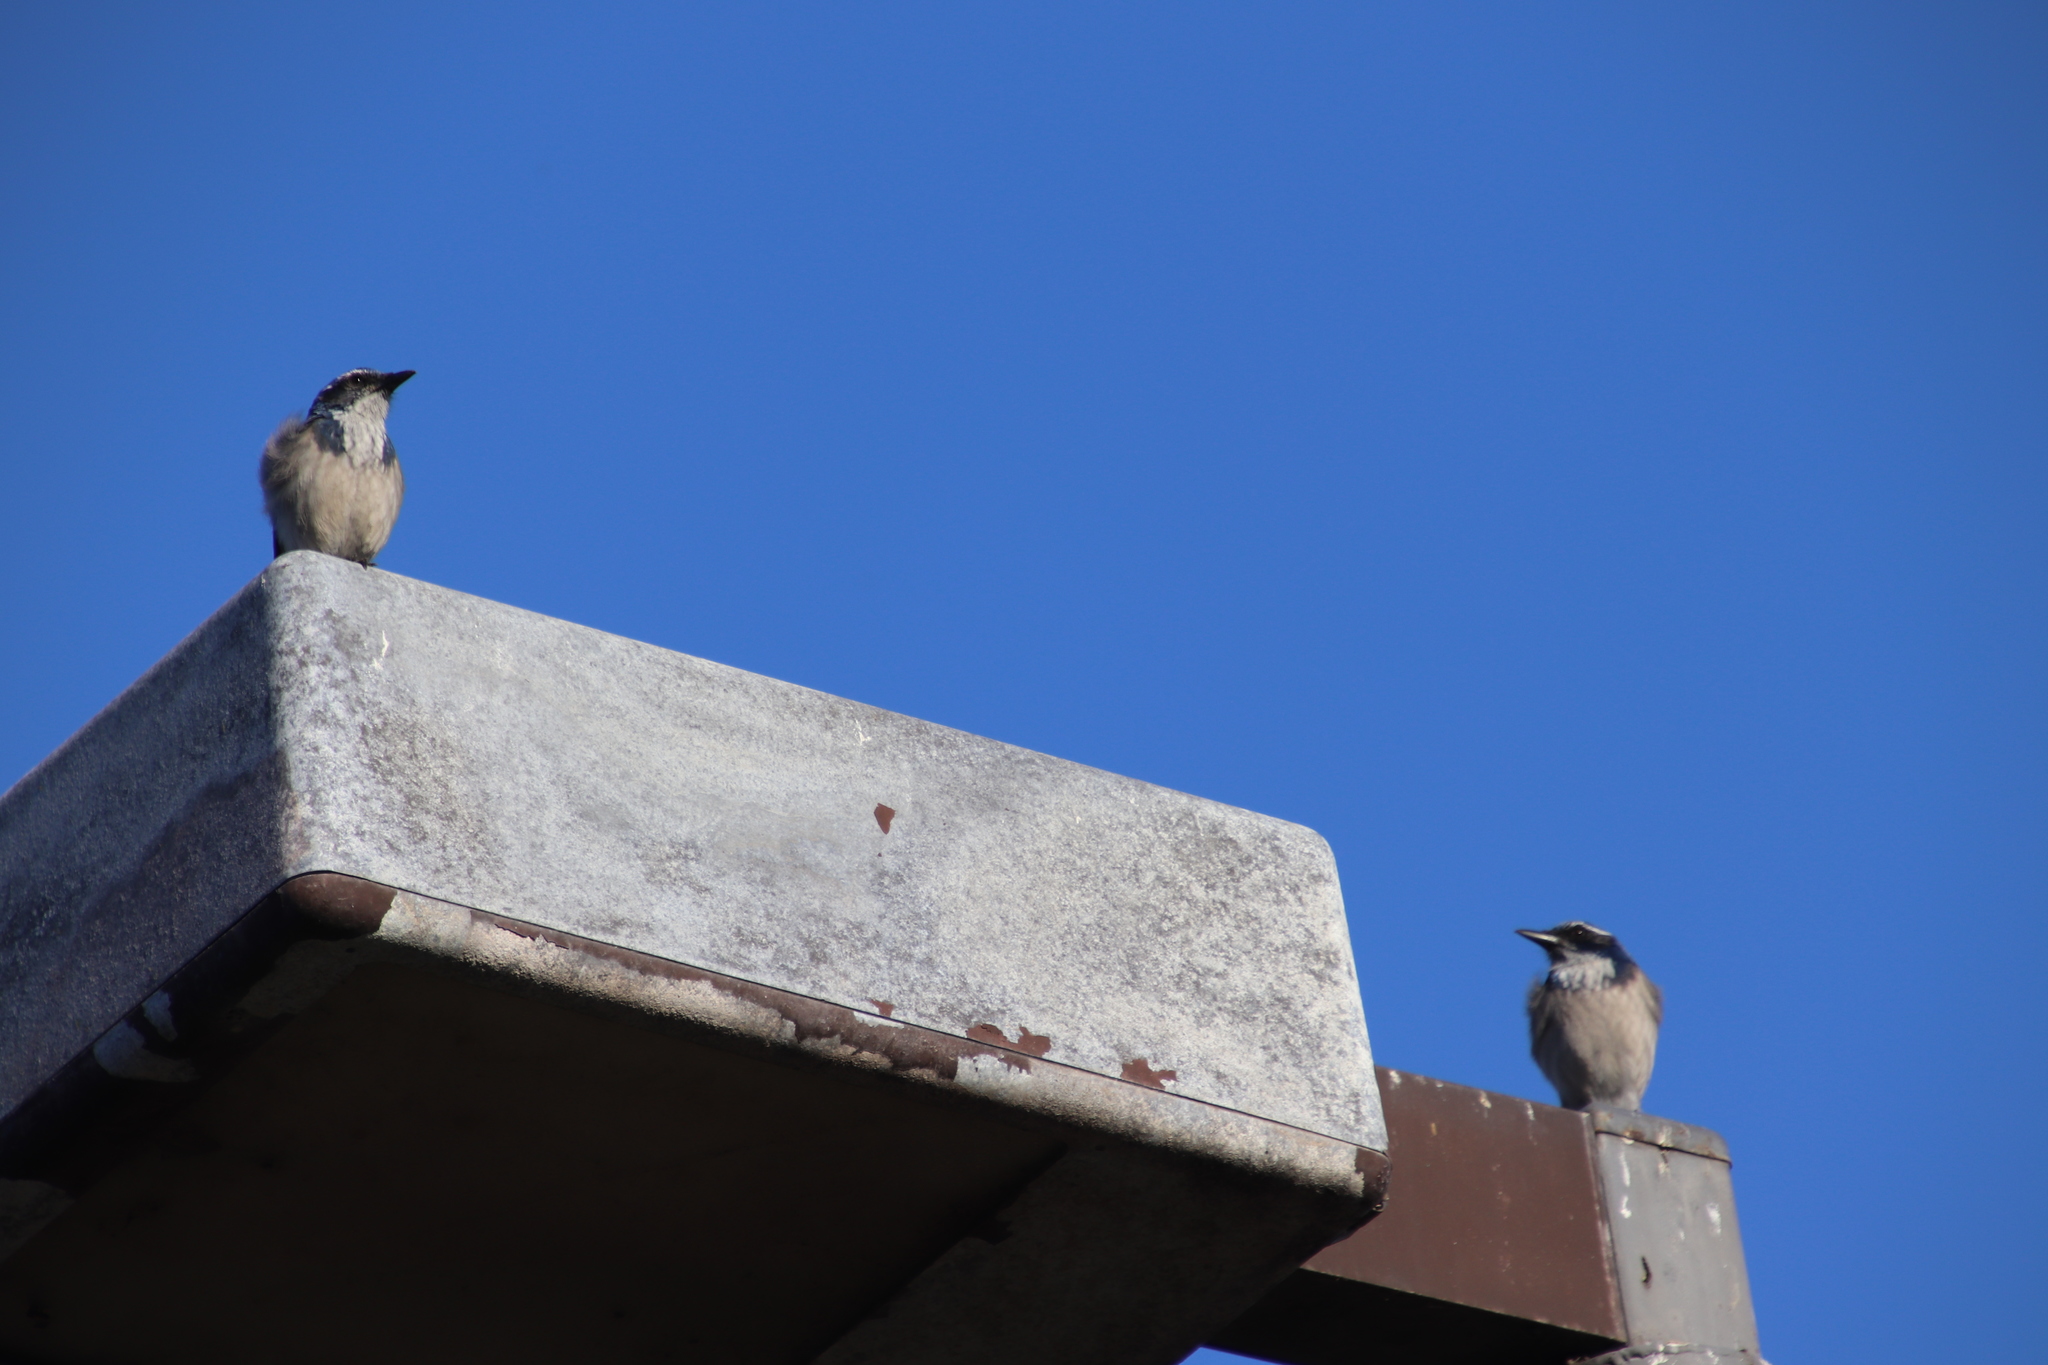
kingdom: Animalia
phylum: Chordata
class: Aves
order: Passeriformes
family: Corvidae
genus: Aphelocoma
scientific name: Aphelocoma californica
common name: California scrub-jay
